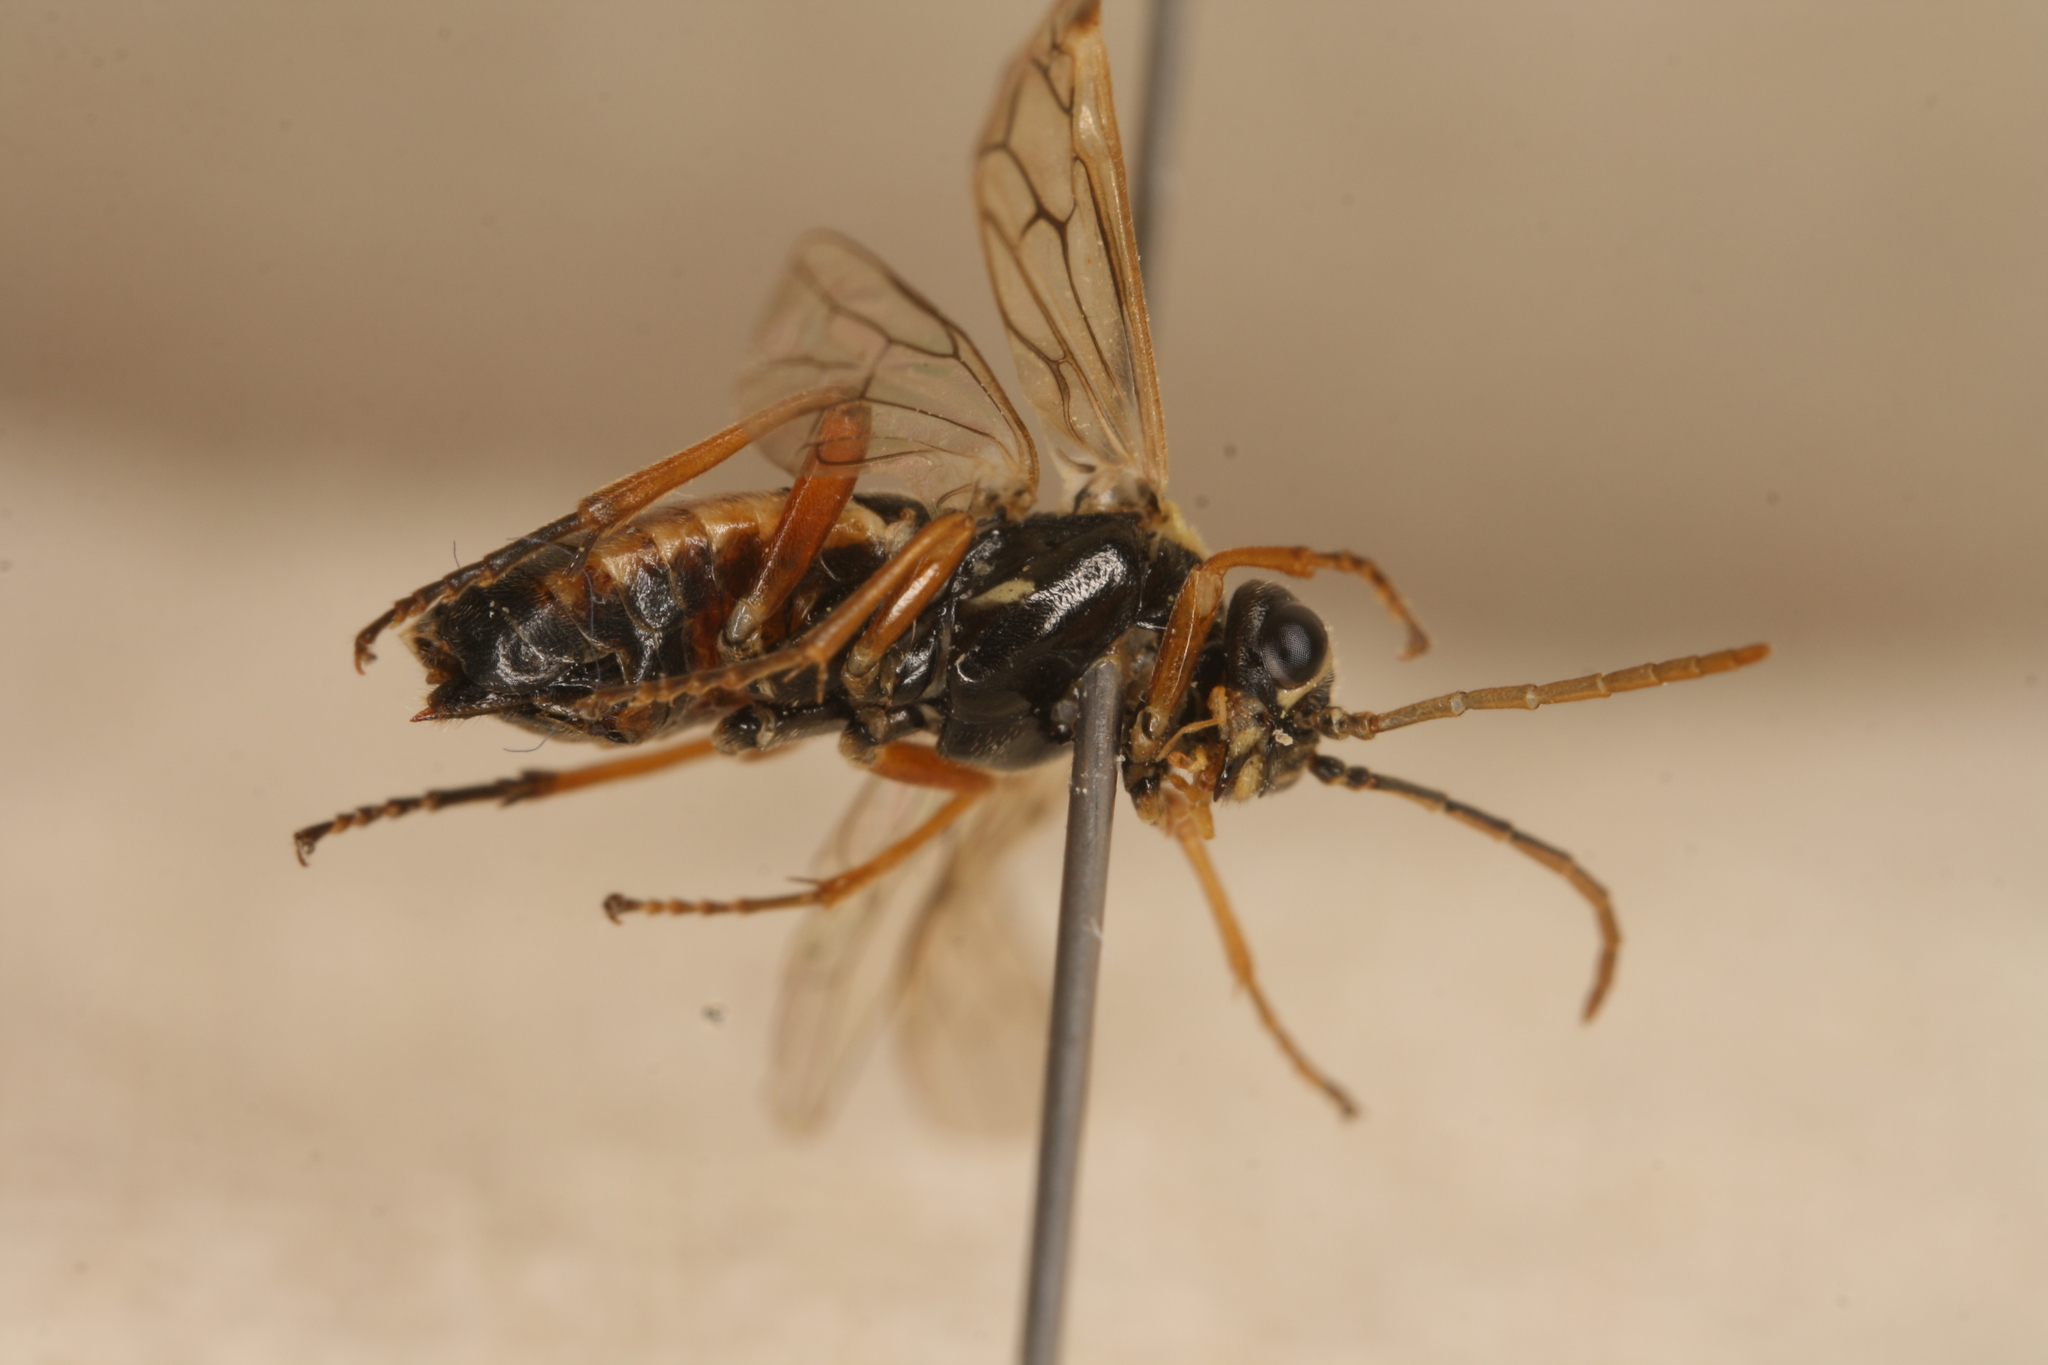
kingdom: Animalia
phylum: Arthropoda
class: Insecta
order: Hymenoptera
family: Tenthredinidae
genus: Aglaostigma
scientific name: Aglaostigma fulvipes
